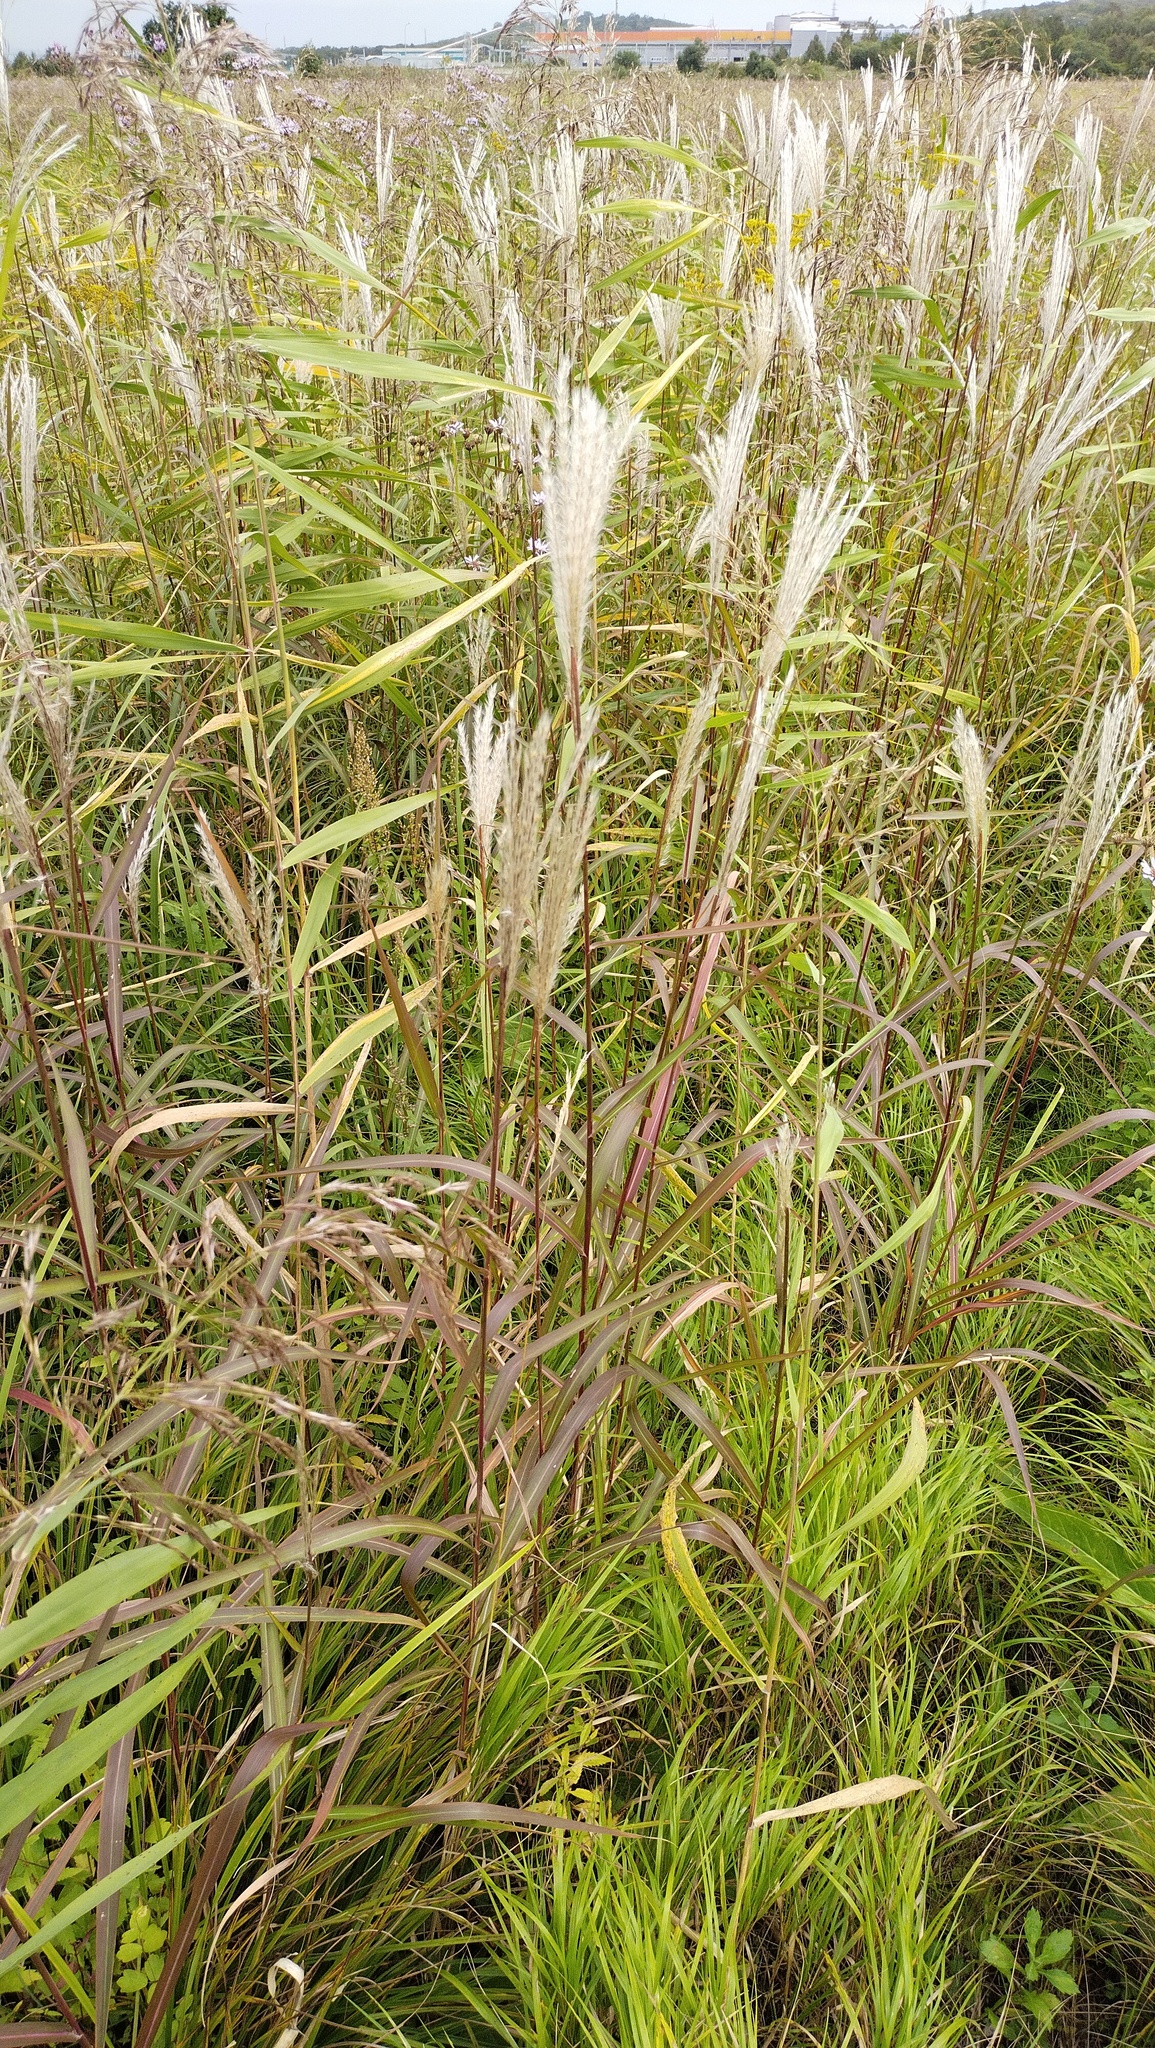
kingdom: Plantae
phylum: Tracheophyta
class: Liliopsida
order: Poales
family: Poaceae
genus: Miscanthus
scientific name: Miscanthus sinensis
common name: Chinese silvergrass
